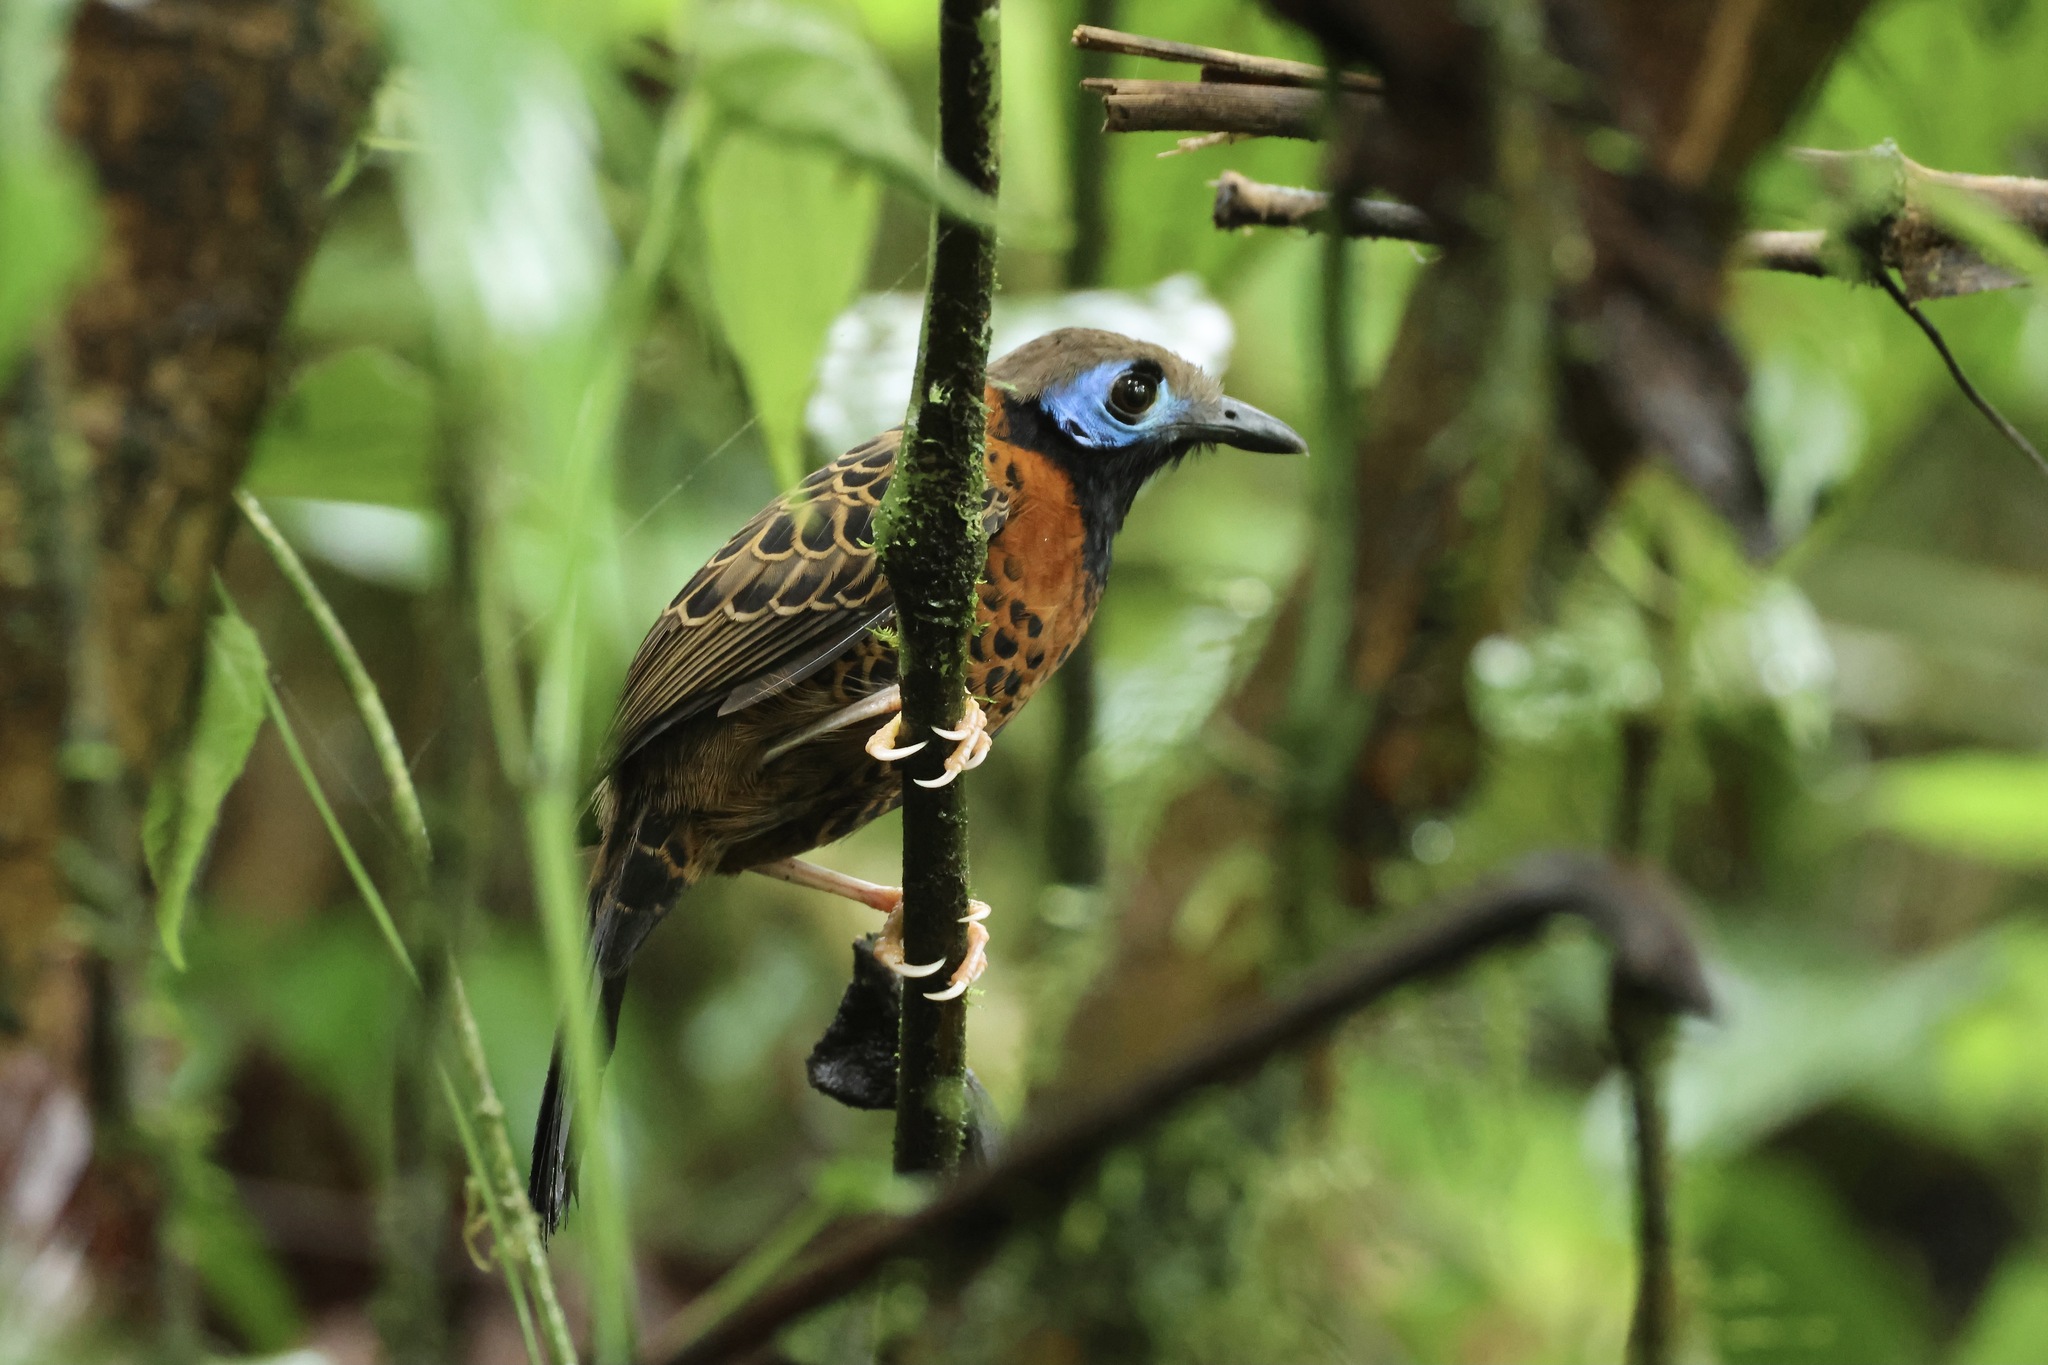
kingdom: Animalia
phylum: Chordata
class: Aves
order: Passeriformes
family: Thamnophilidae
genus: Phaenostictus
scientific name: Phaenostictus mcleannani
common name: Ocellated antbird
